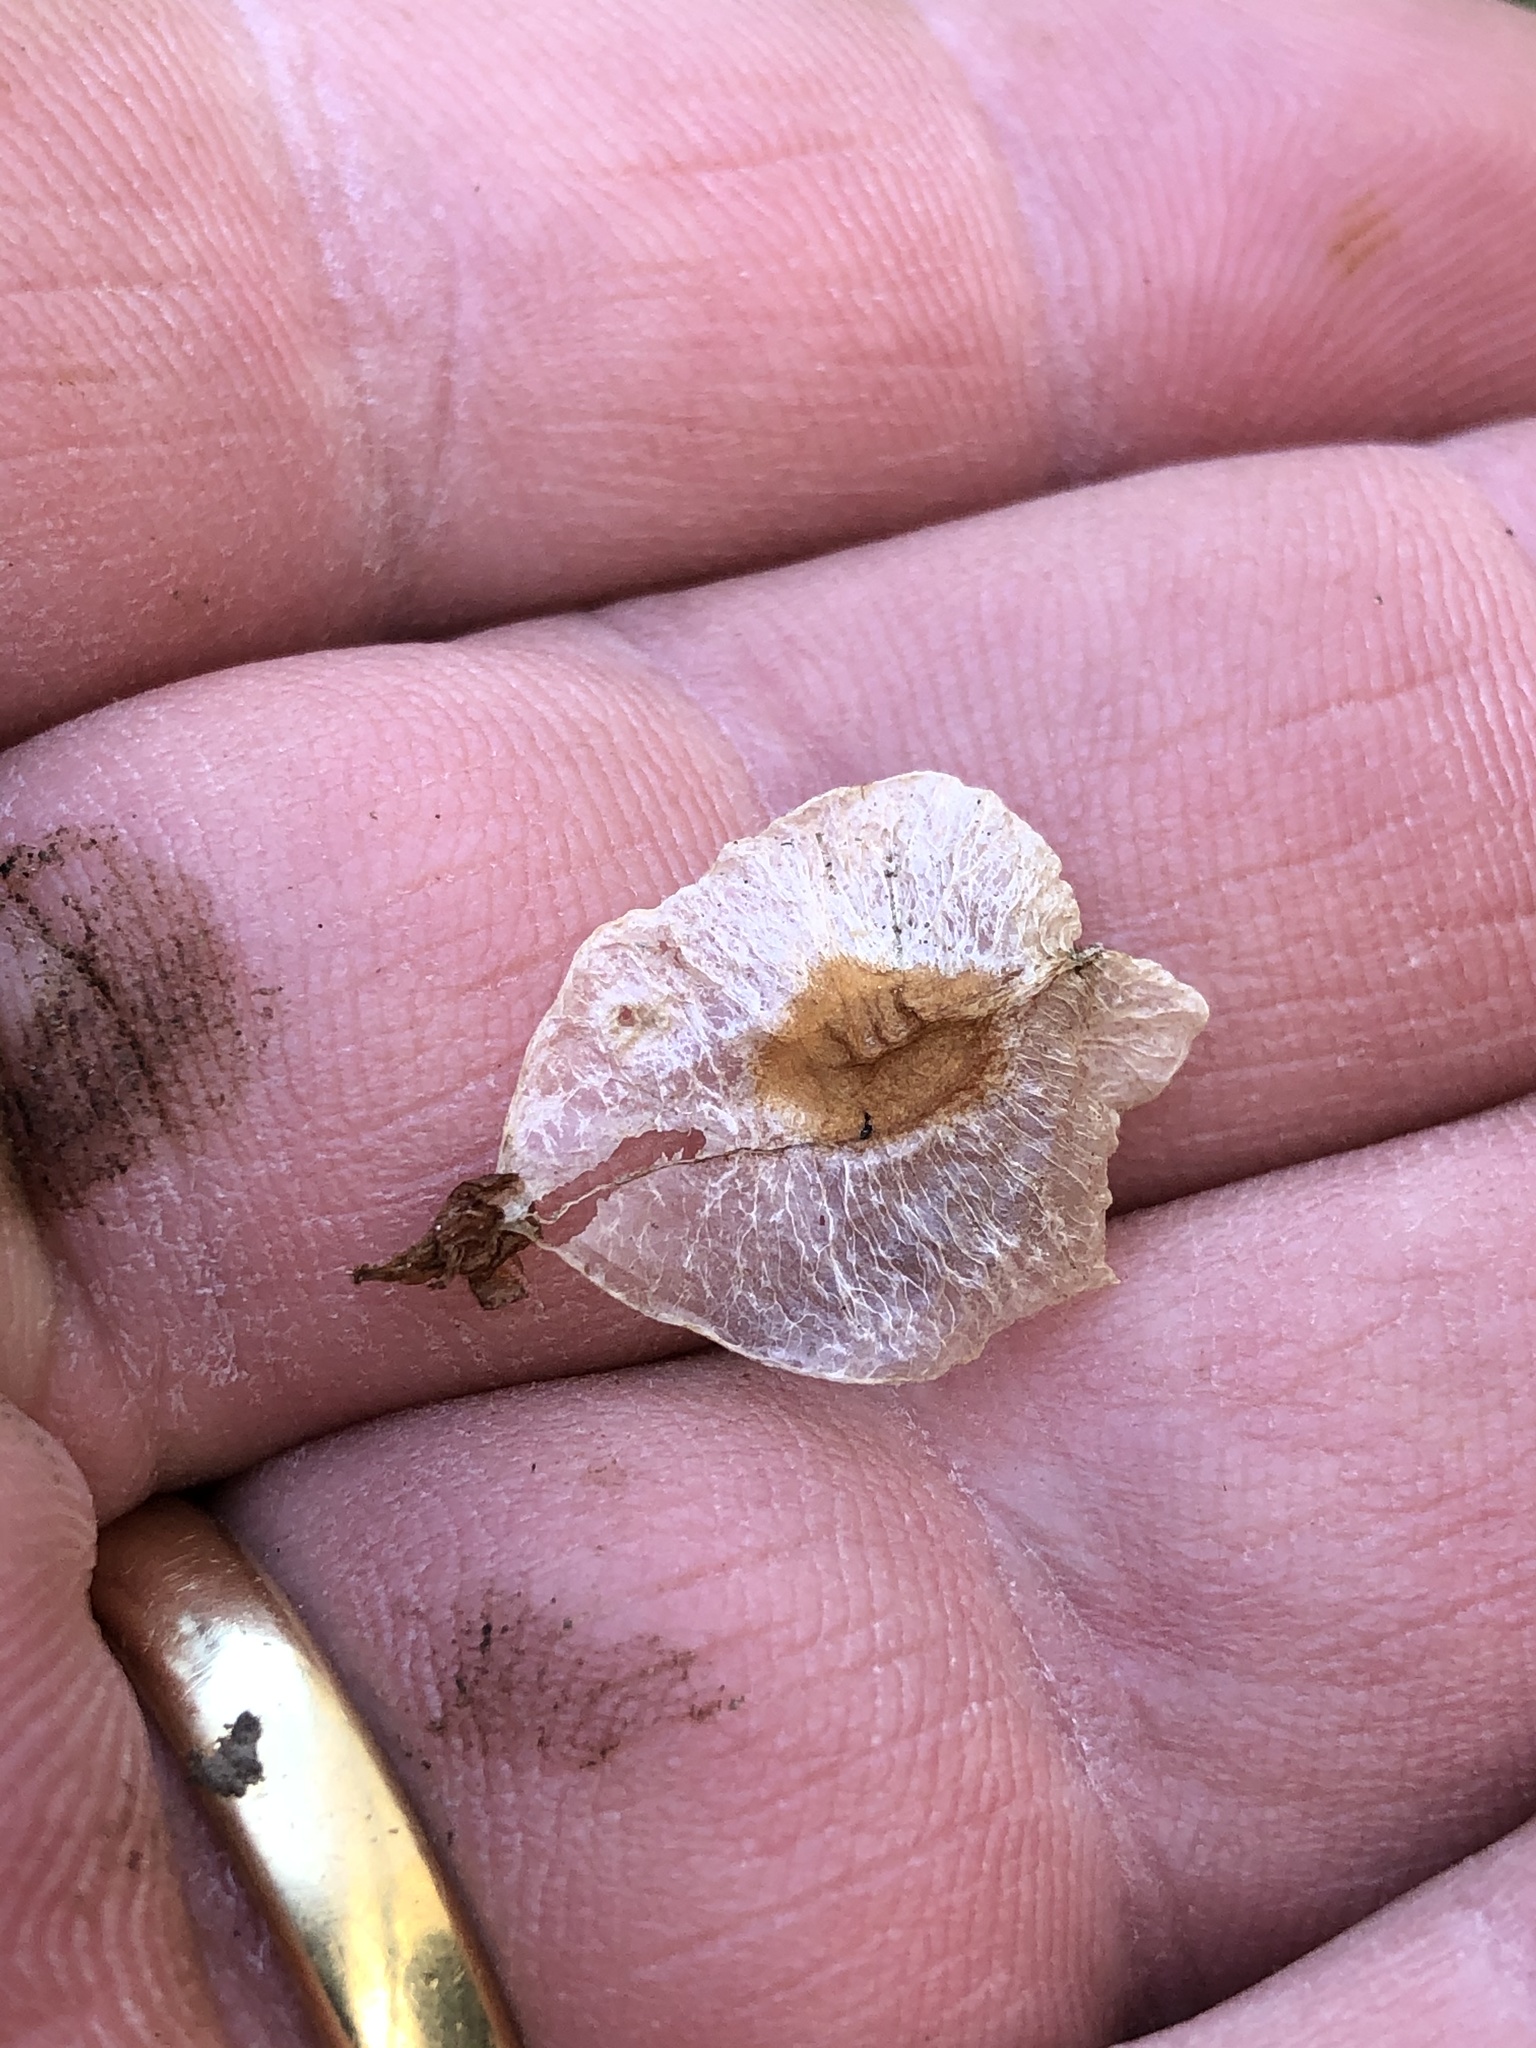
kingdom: Plantae
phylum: Tracheophyta
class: Magnoliopsida
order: Sapindales
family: Sapindaceae
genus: Dodonaea
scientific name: Dodonaea viscosa
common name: Hopbush
